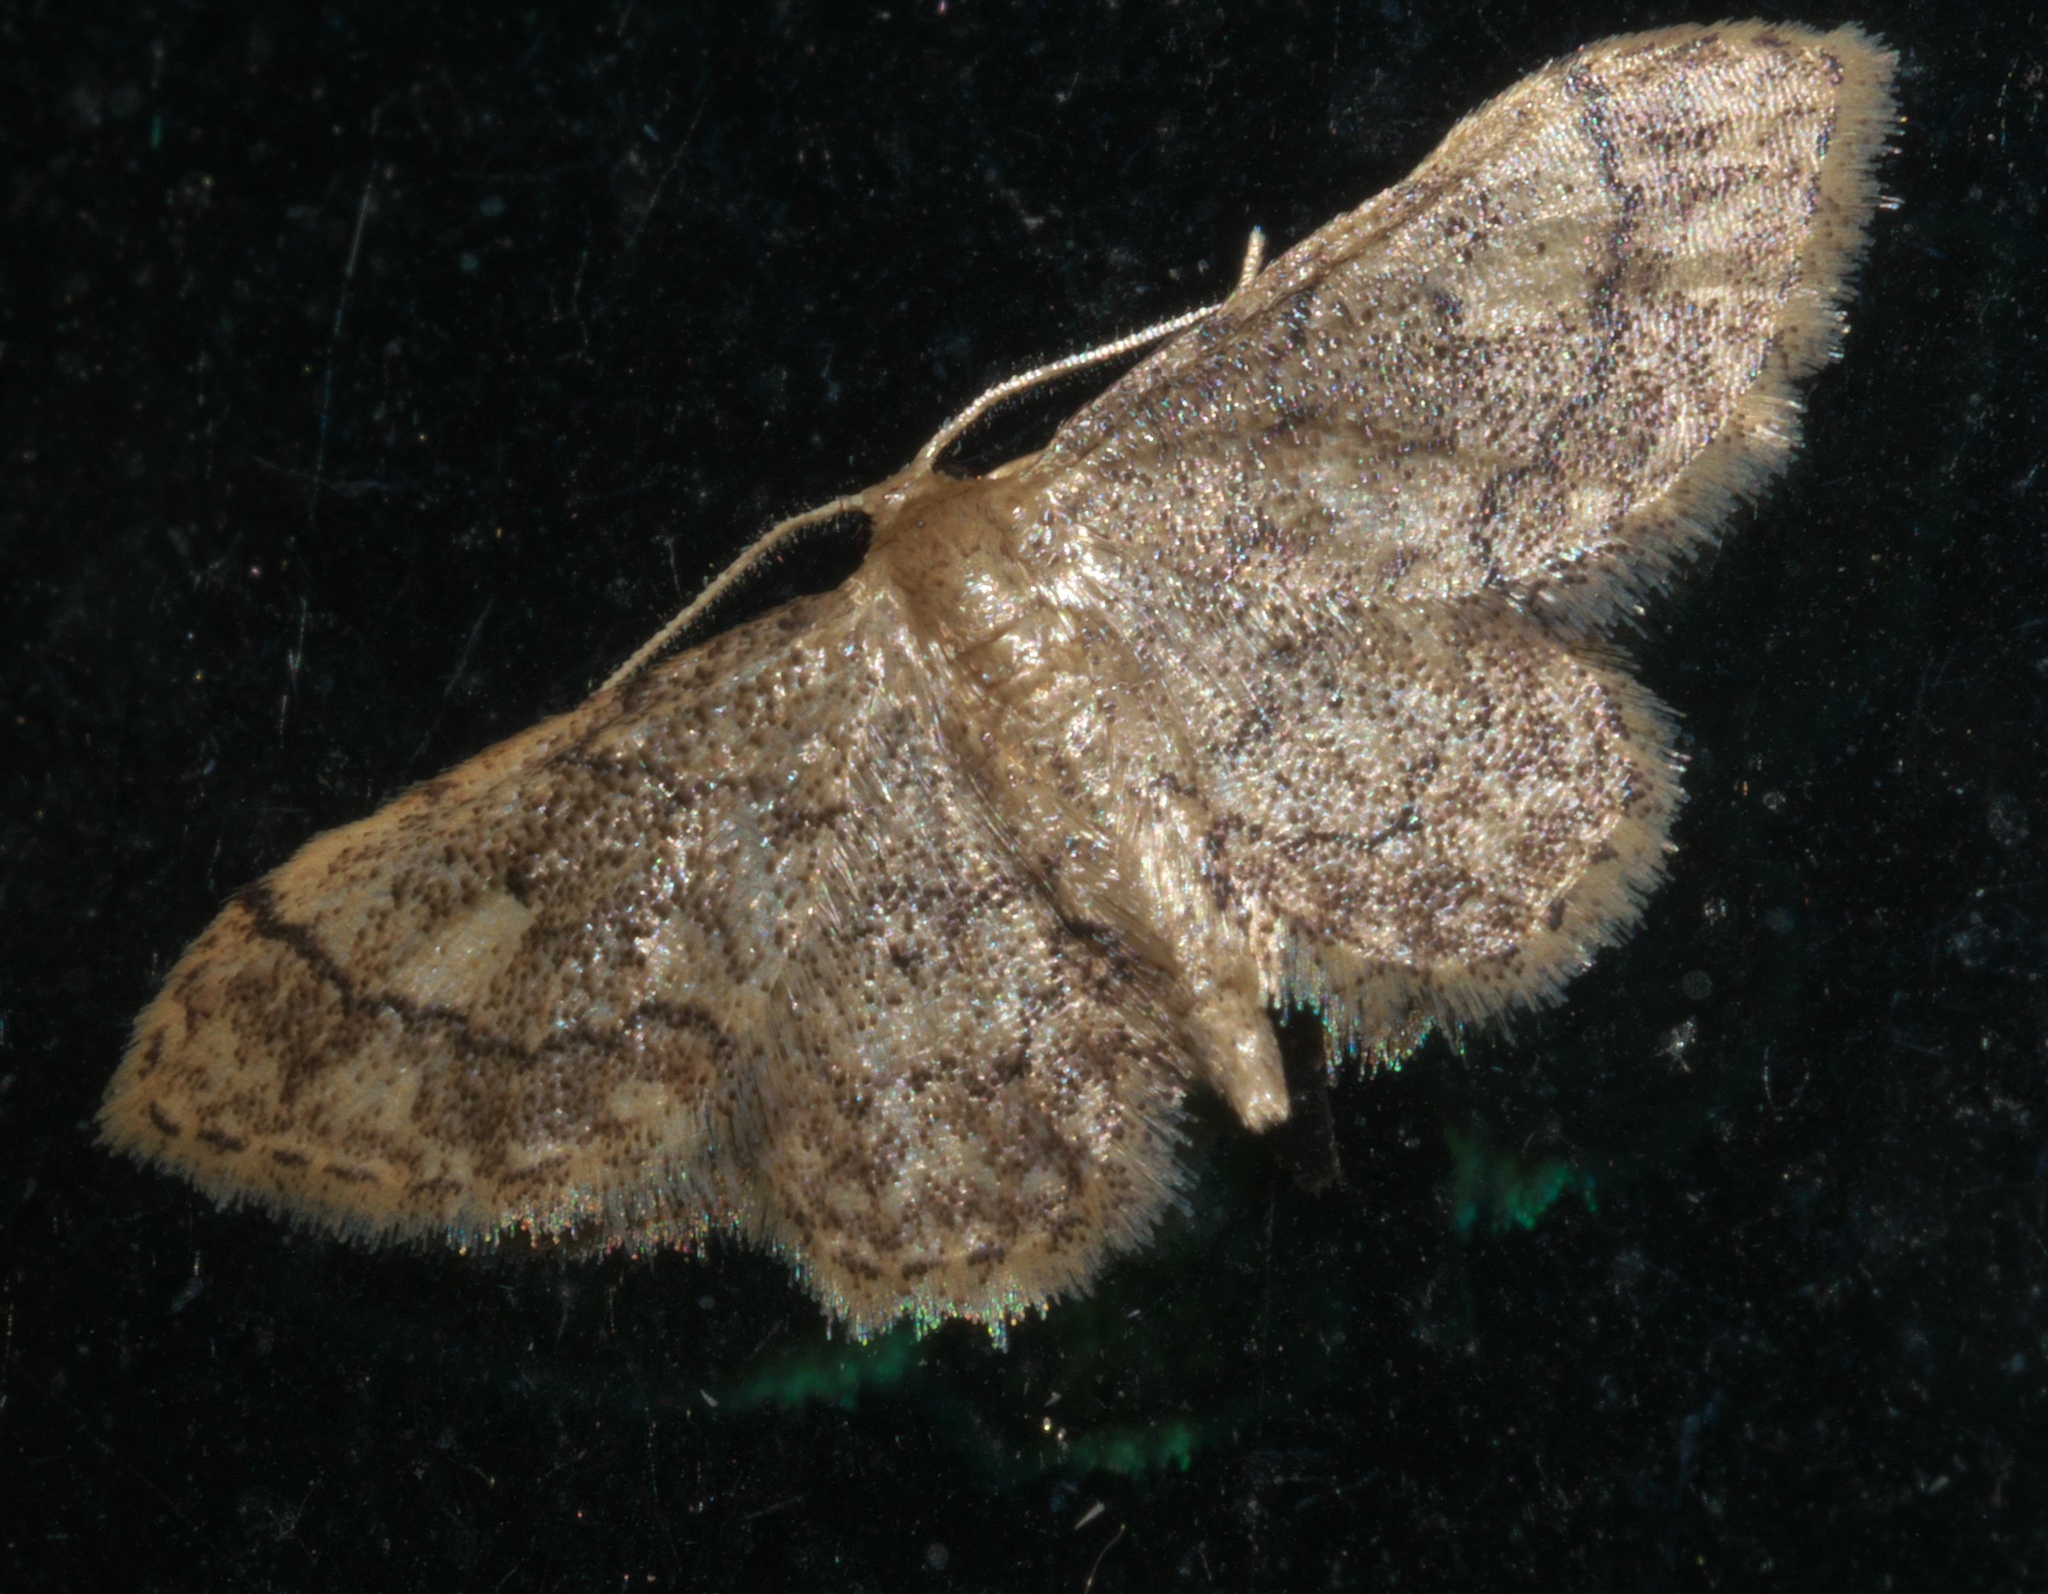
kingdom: Animalia
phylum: Arthropoda
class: Insecta
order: Lepidoptera
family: Geometridae
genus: Idaea
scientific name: Idaea celtima
